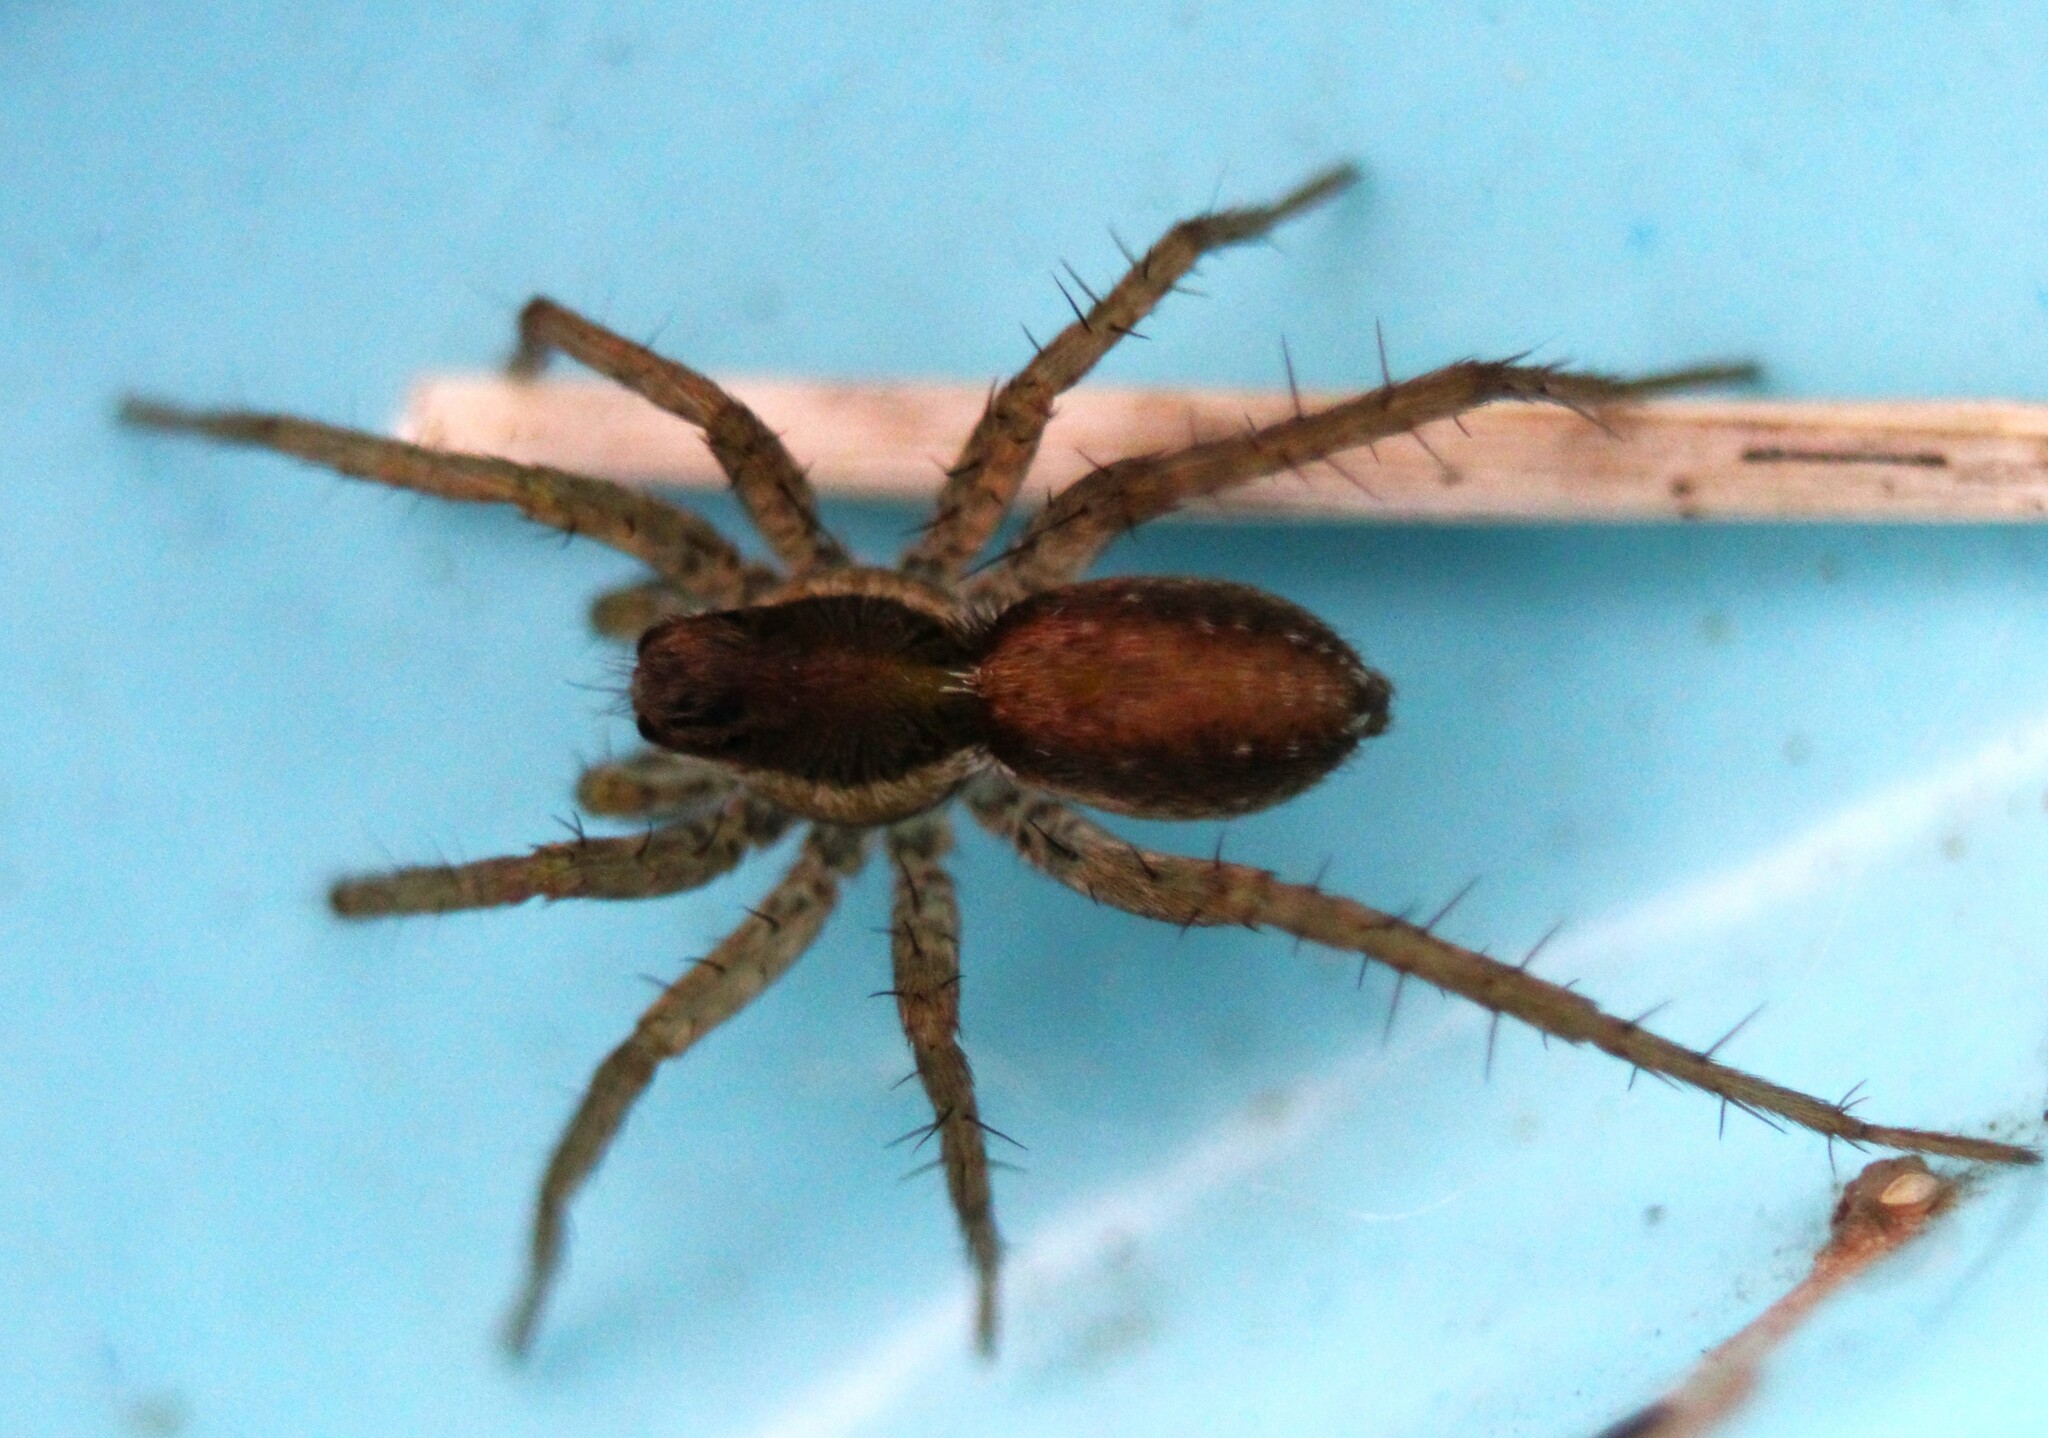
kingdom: Animalia
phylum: Arthropoda
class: Arachnida
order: Araneae
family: Lycosidae
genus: Pardosa
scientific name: Pardosa pauxilla
